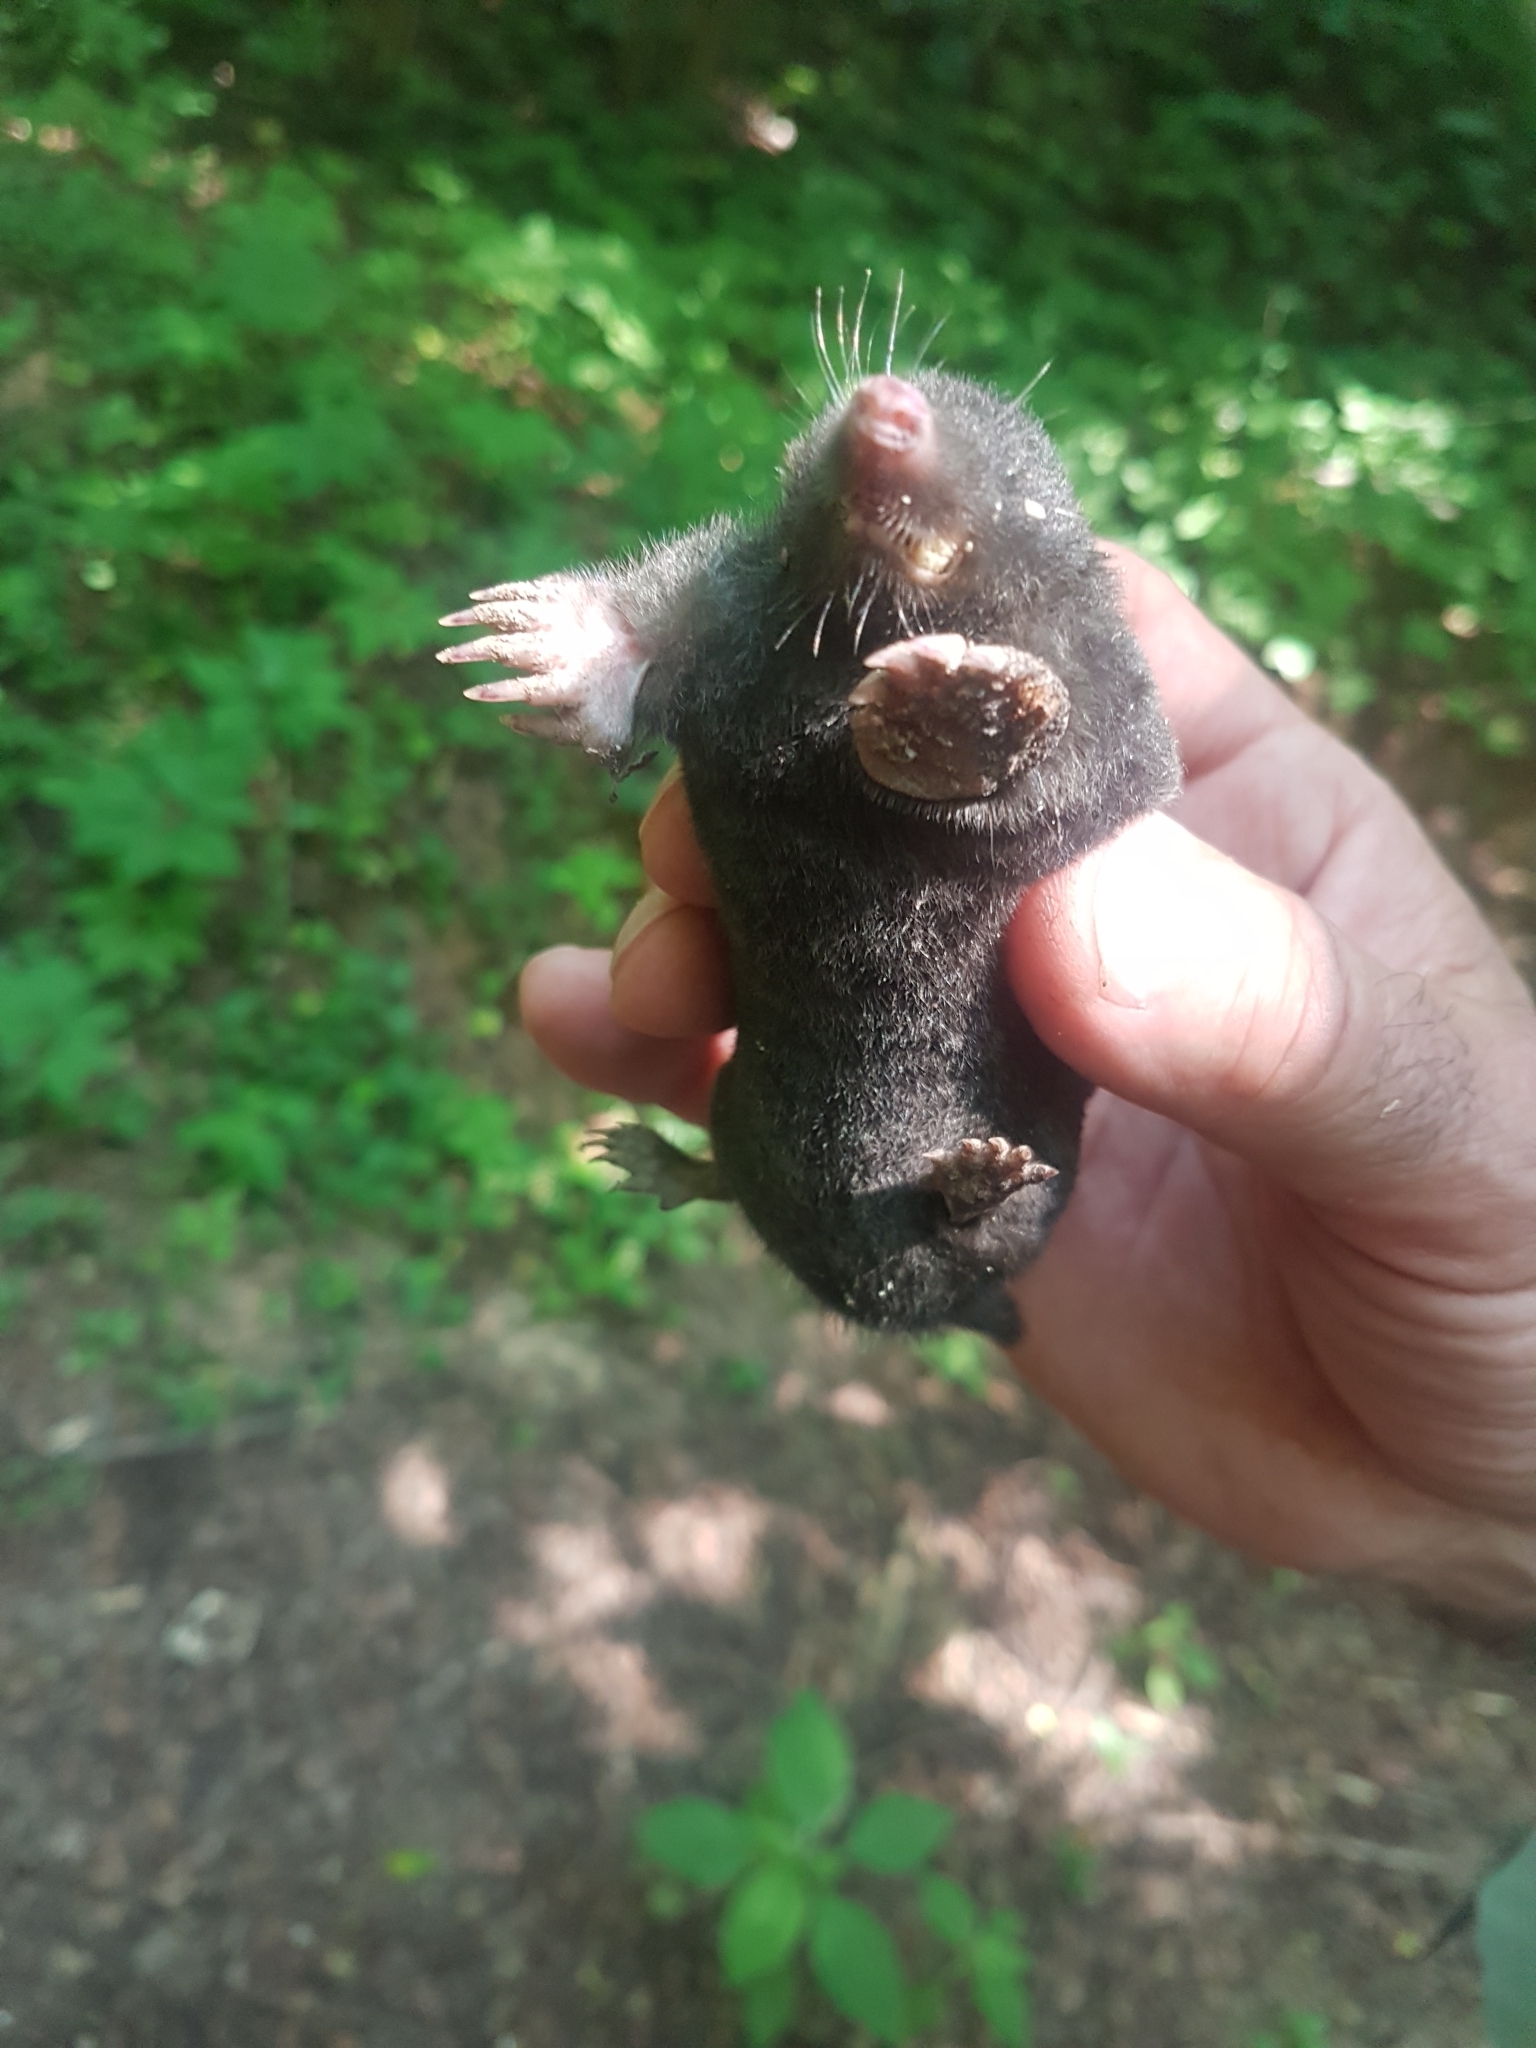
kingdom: Animalia
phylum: Chordata
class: Mammalia
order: Soricomorpha
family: Talpidae
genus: Talpa
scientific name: Talpa europaea
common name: European mole
